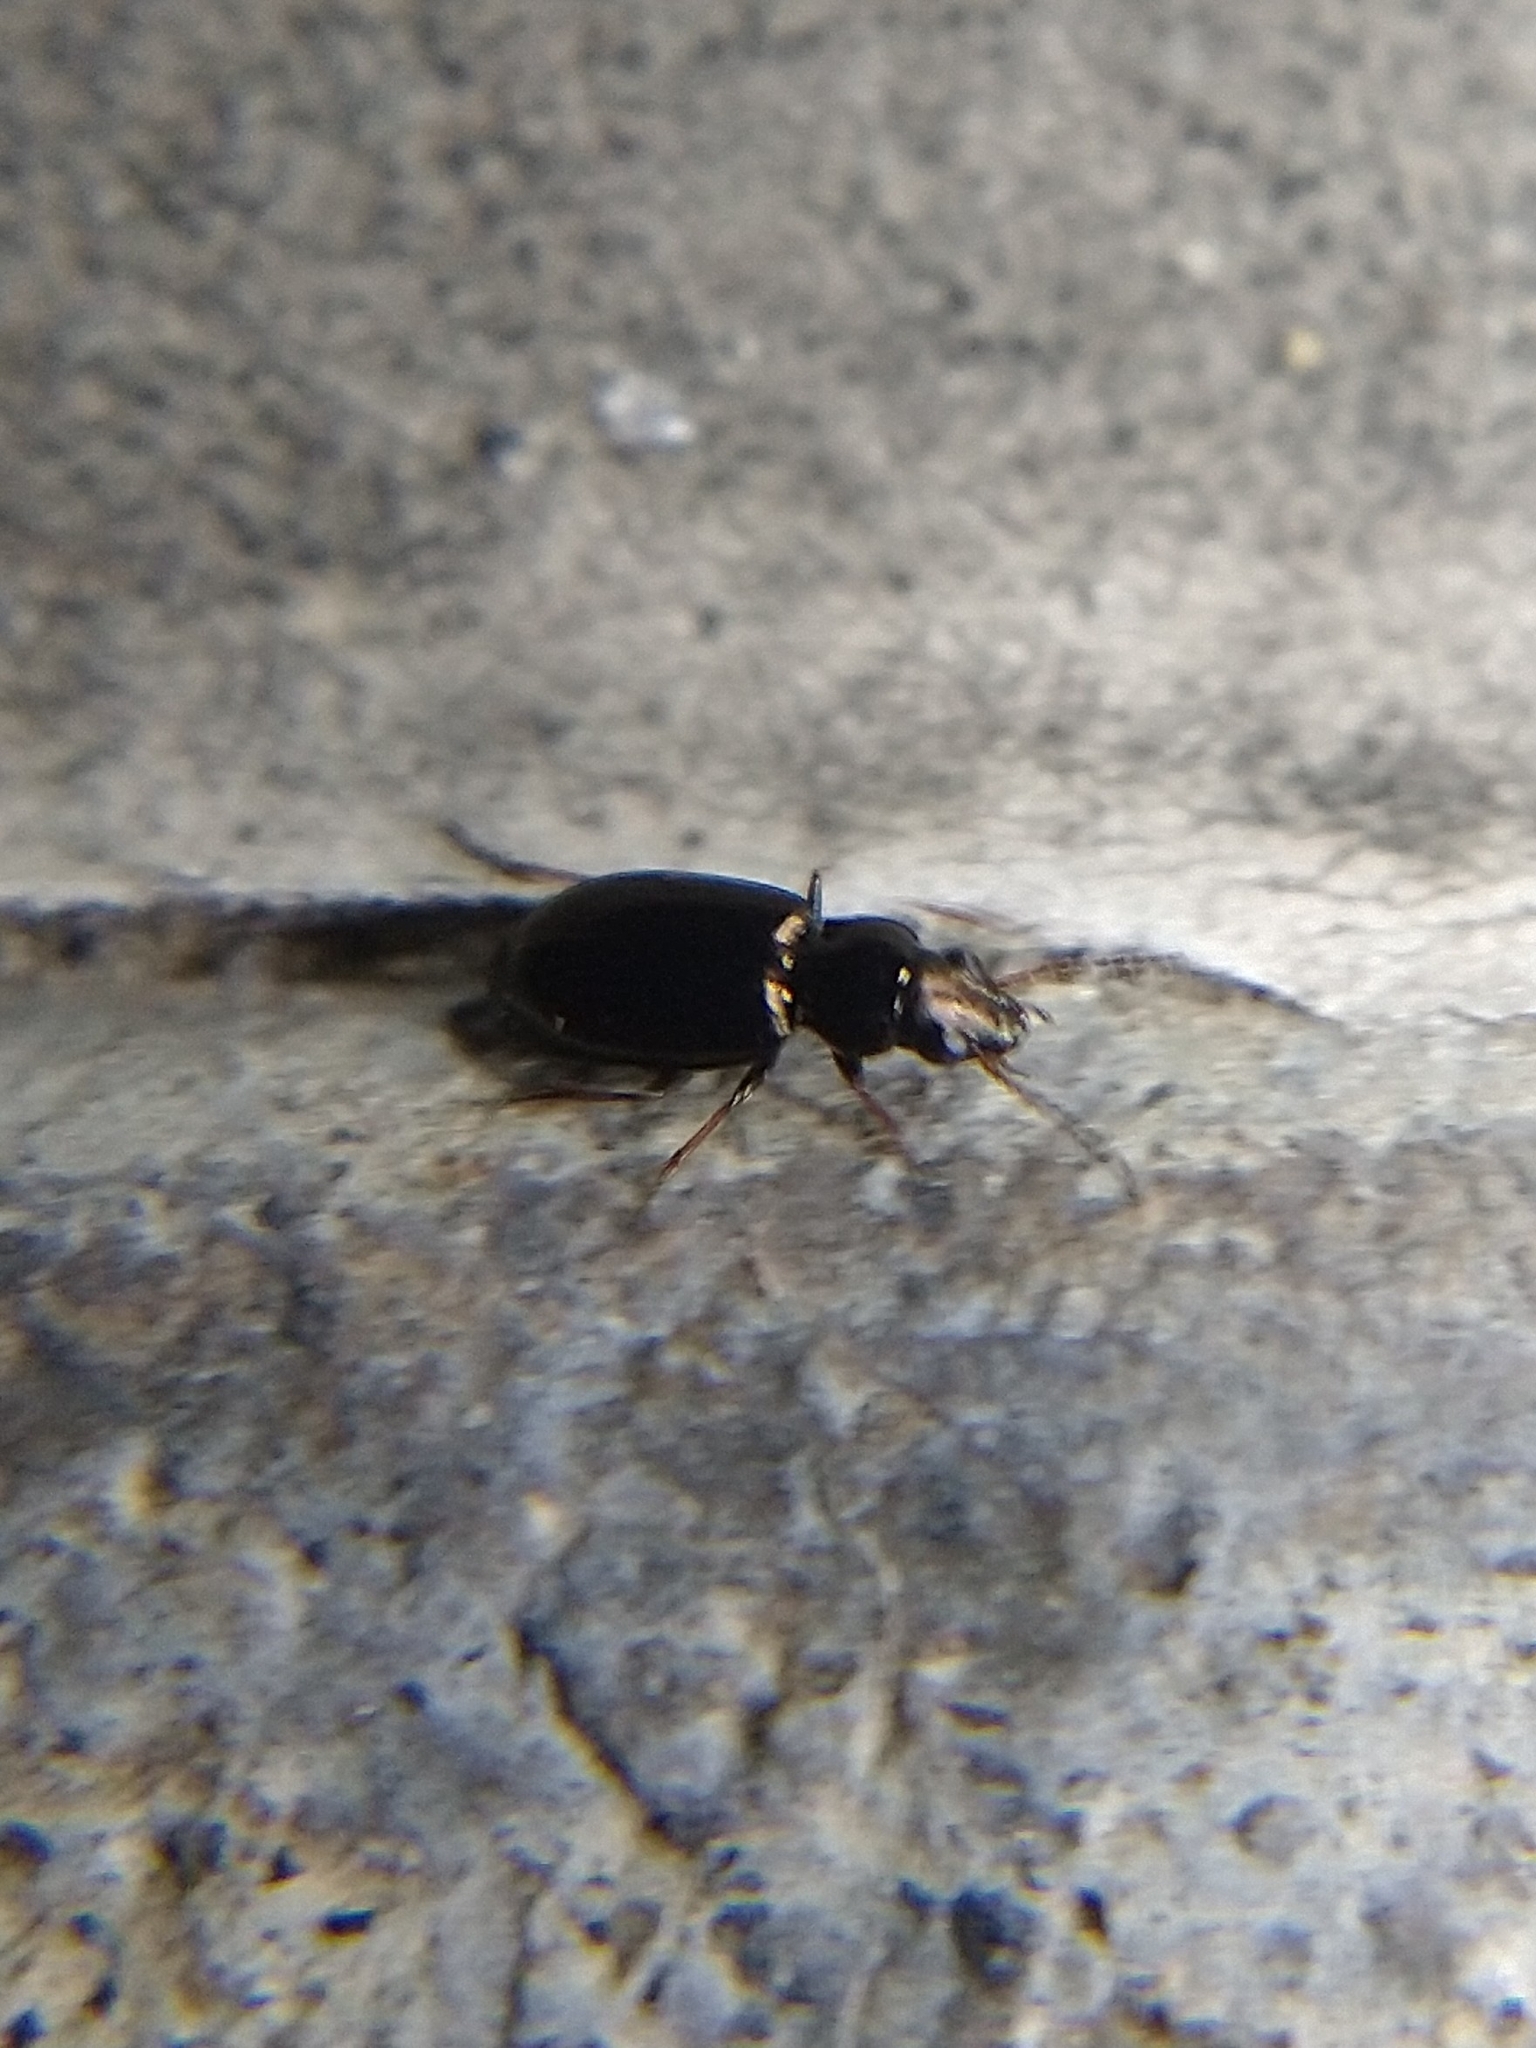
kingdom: Animalia
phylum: Arthropoda
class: Insecta
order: Coleoptera
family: Carabidae
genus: Bembidion
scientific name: Bembidion
